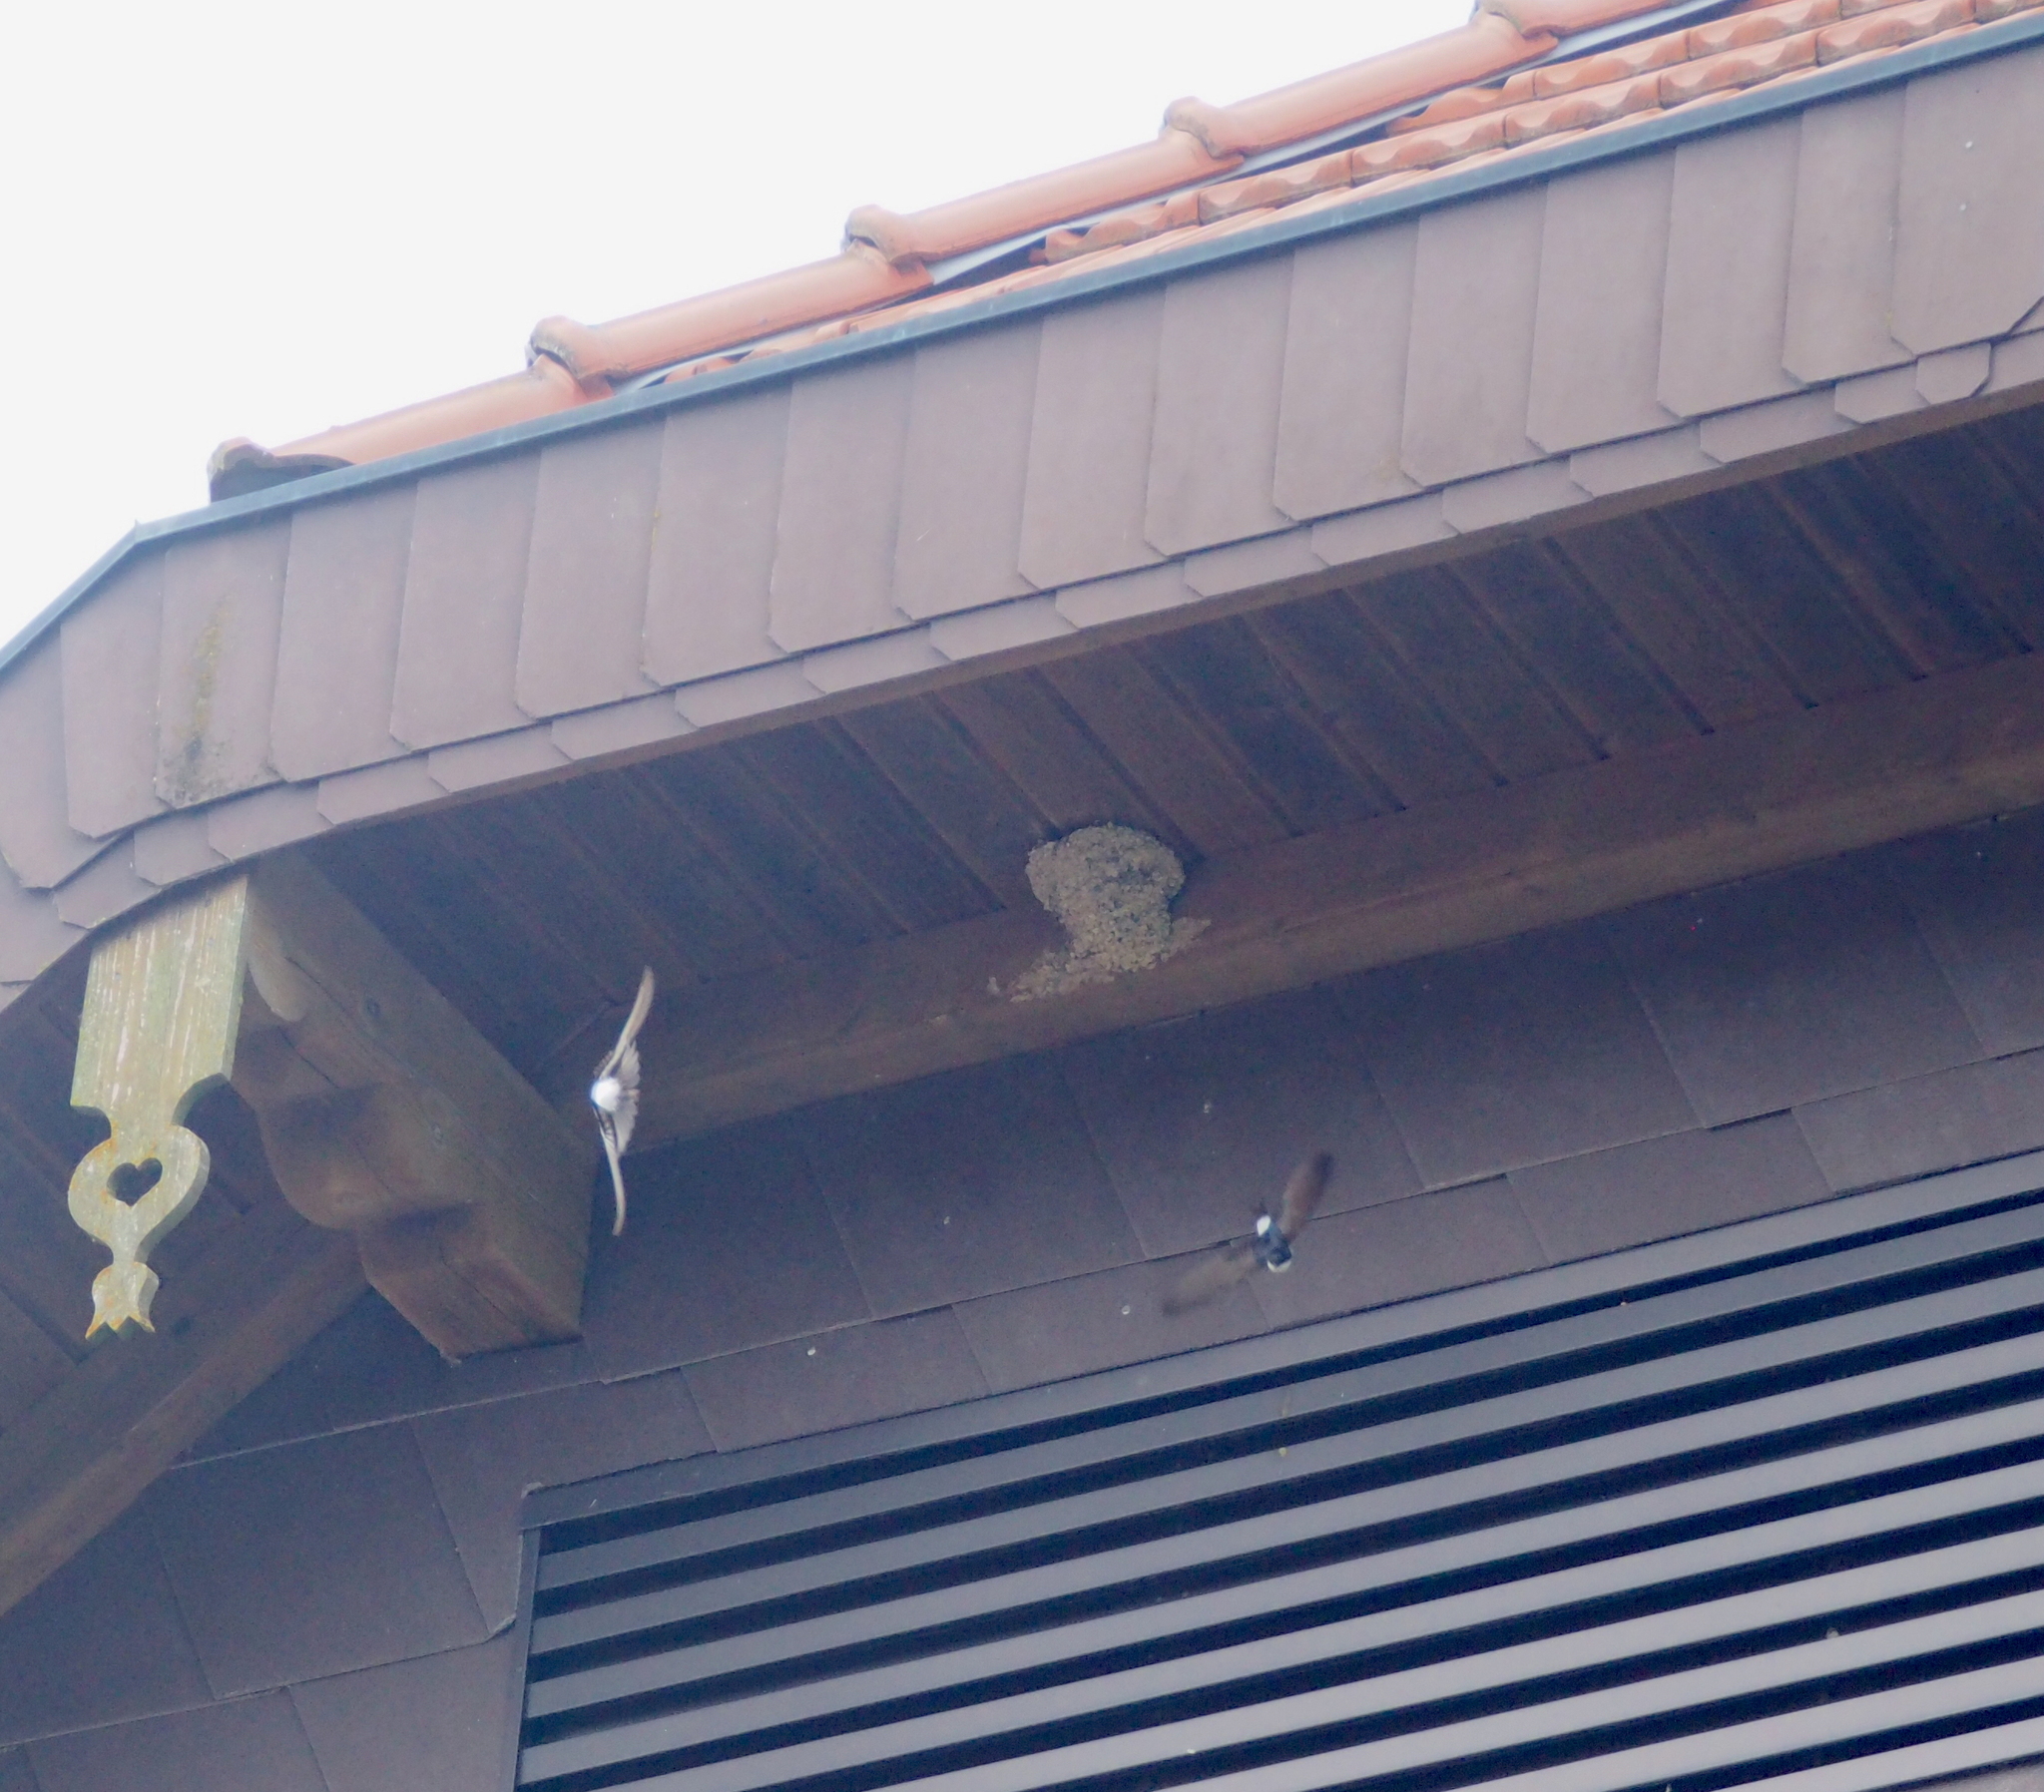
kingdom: Animalia
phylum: Chordata
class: Aves
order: Passeriformes
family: Hirundinidae
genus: Delichon
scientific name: Delichon urbicum
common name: Common house martin
